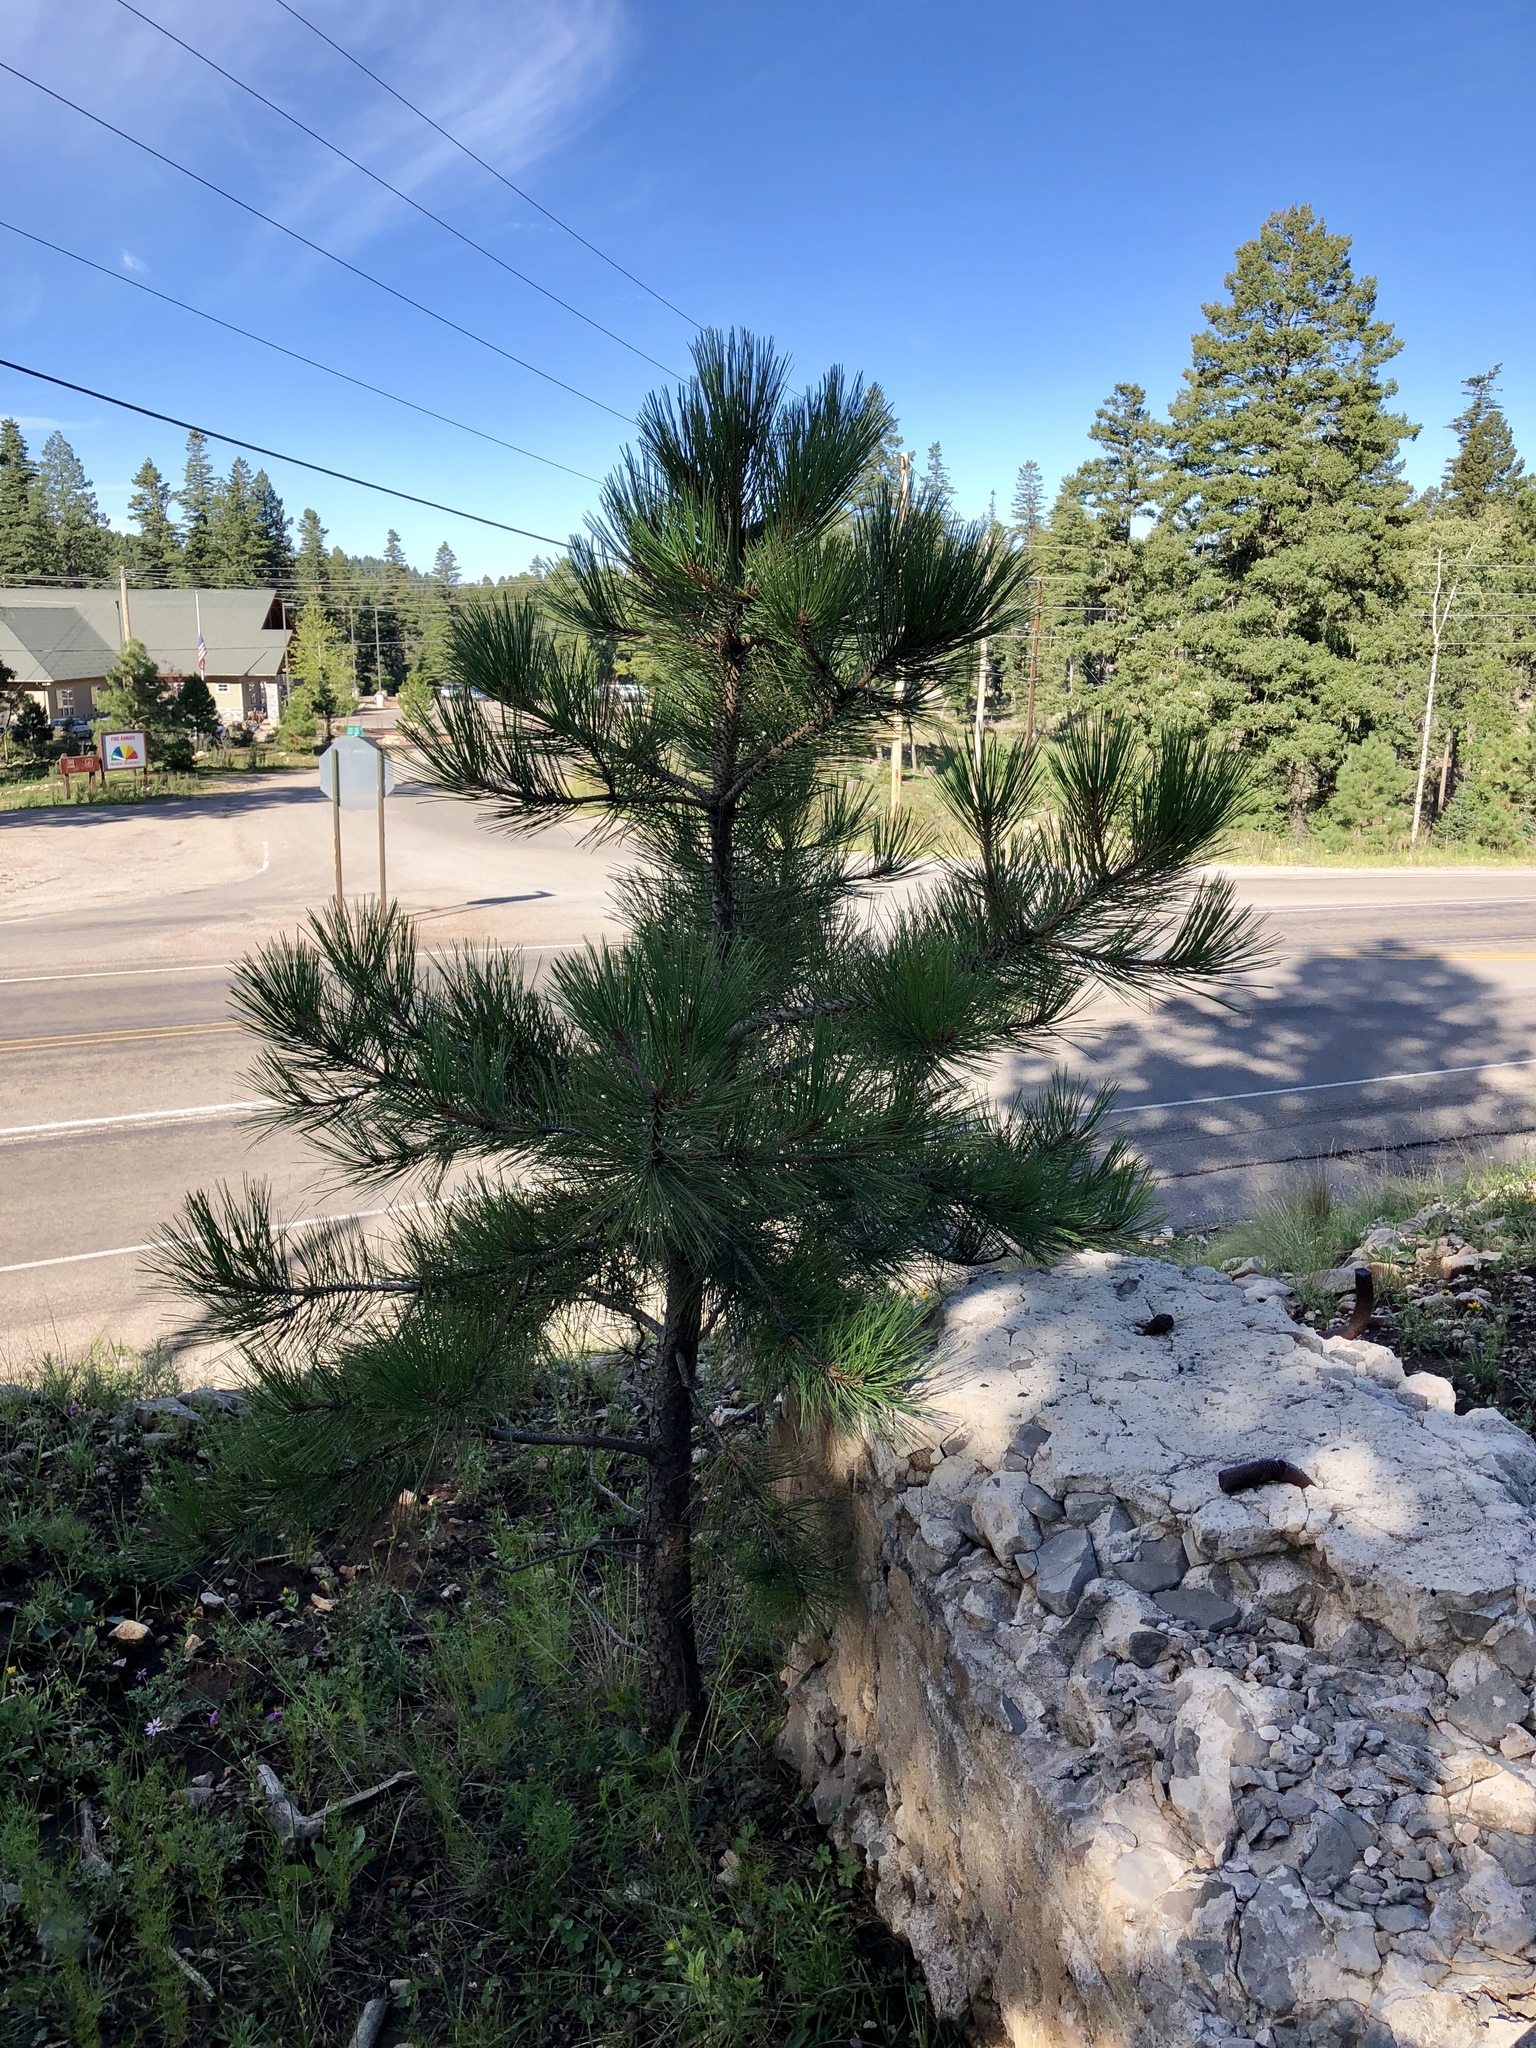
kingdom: Plantae
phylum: Tracheophyta
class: Pinopsida
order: Pinales
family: Pinaceae
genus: Pinus
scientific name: Pinus ponderosa
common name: Western yellow-pine
